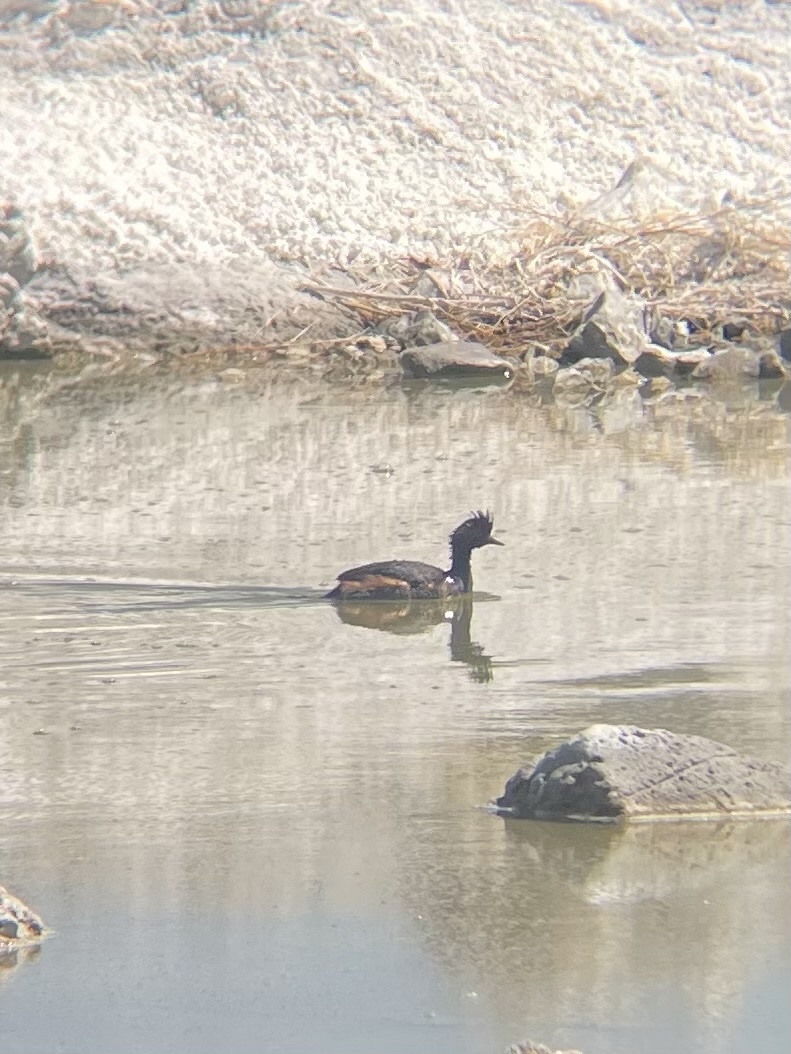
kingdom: Animalia
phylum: Chordata
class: Aves
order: Podicipediformes
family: Podicipedidae
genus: Podiceps
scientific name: Podiceps nigricollis
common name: Black-necked grebe
